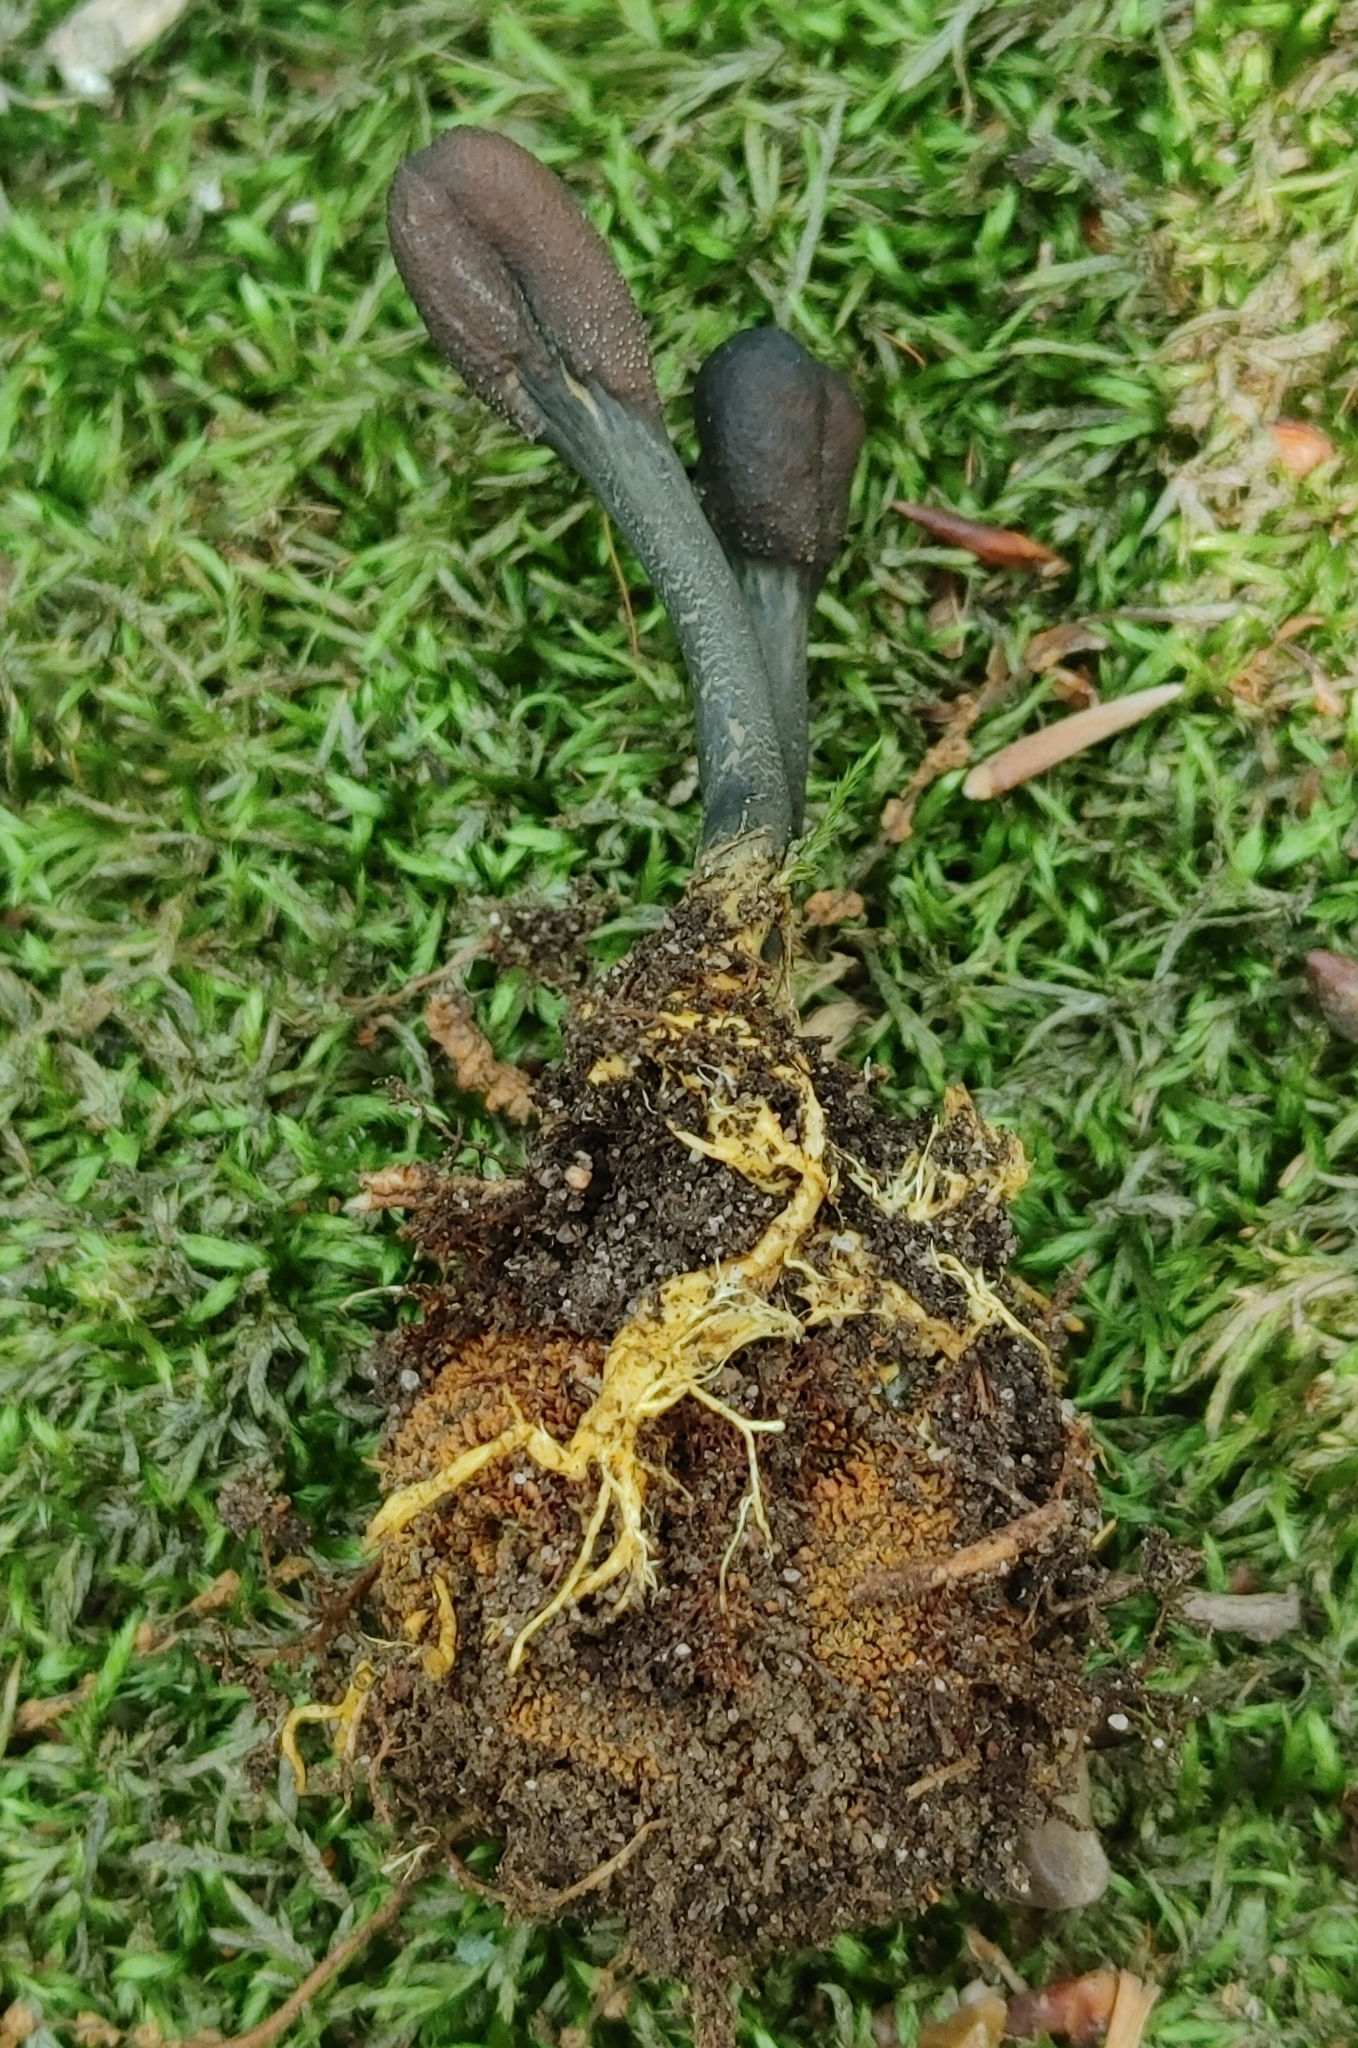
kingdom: Fungi
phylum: Ascomycota
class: Sordariomycetes
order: Hypocreales
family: Ophiocordycipitaceae
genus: Tolypocladium
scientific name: Tolypocladium ophioglossoides
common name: Snaketongue truffleclub
